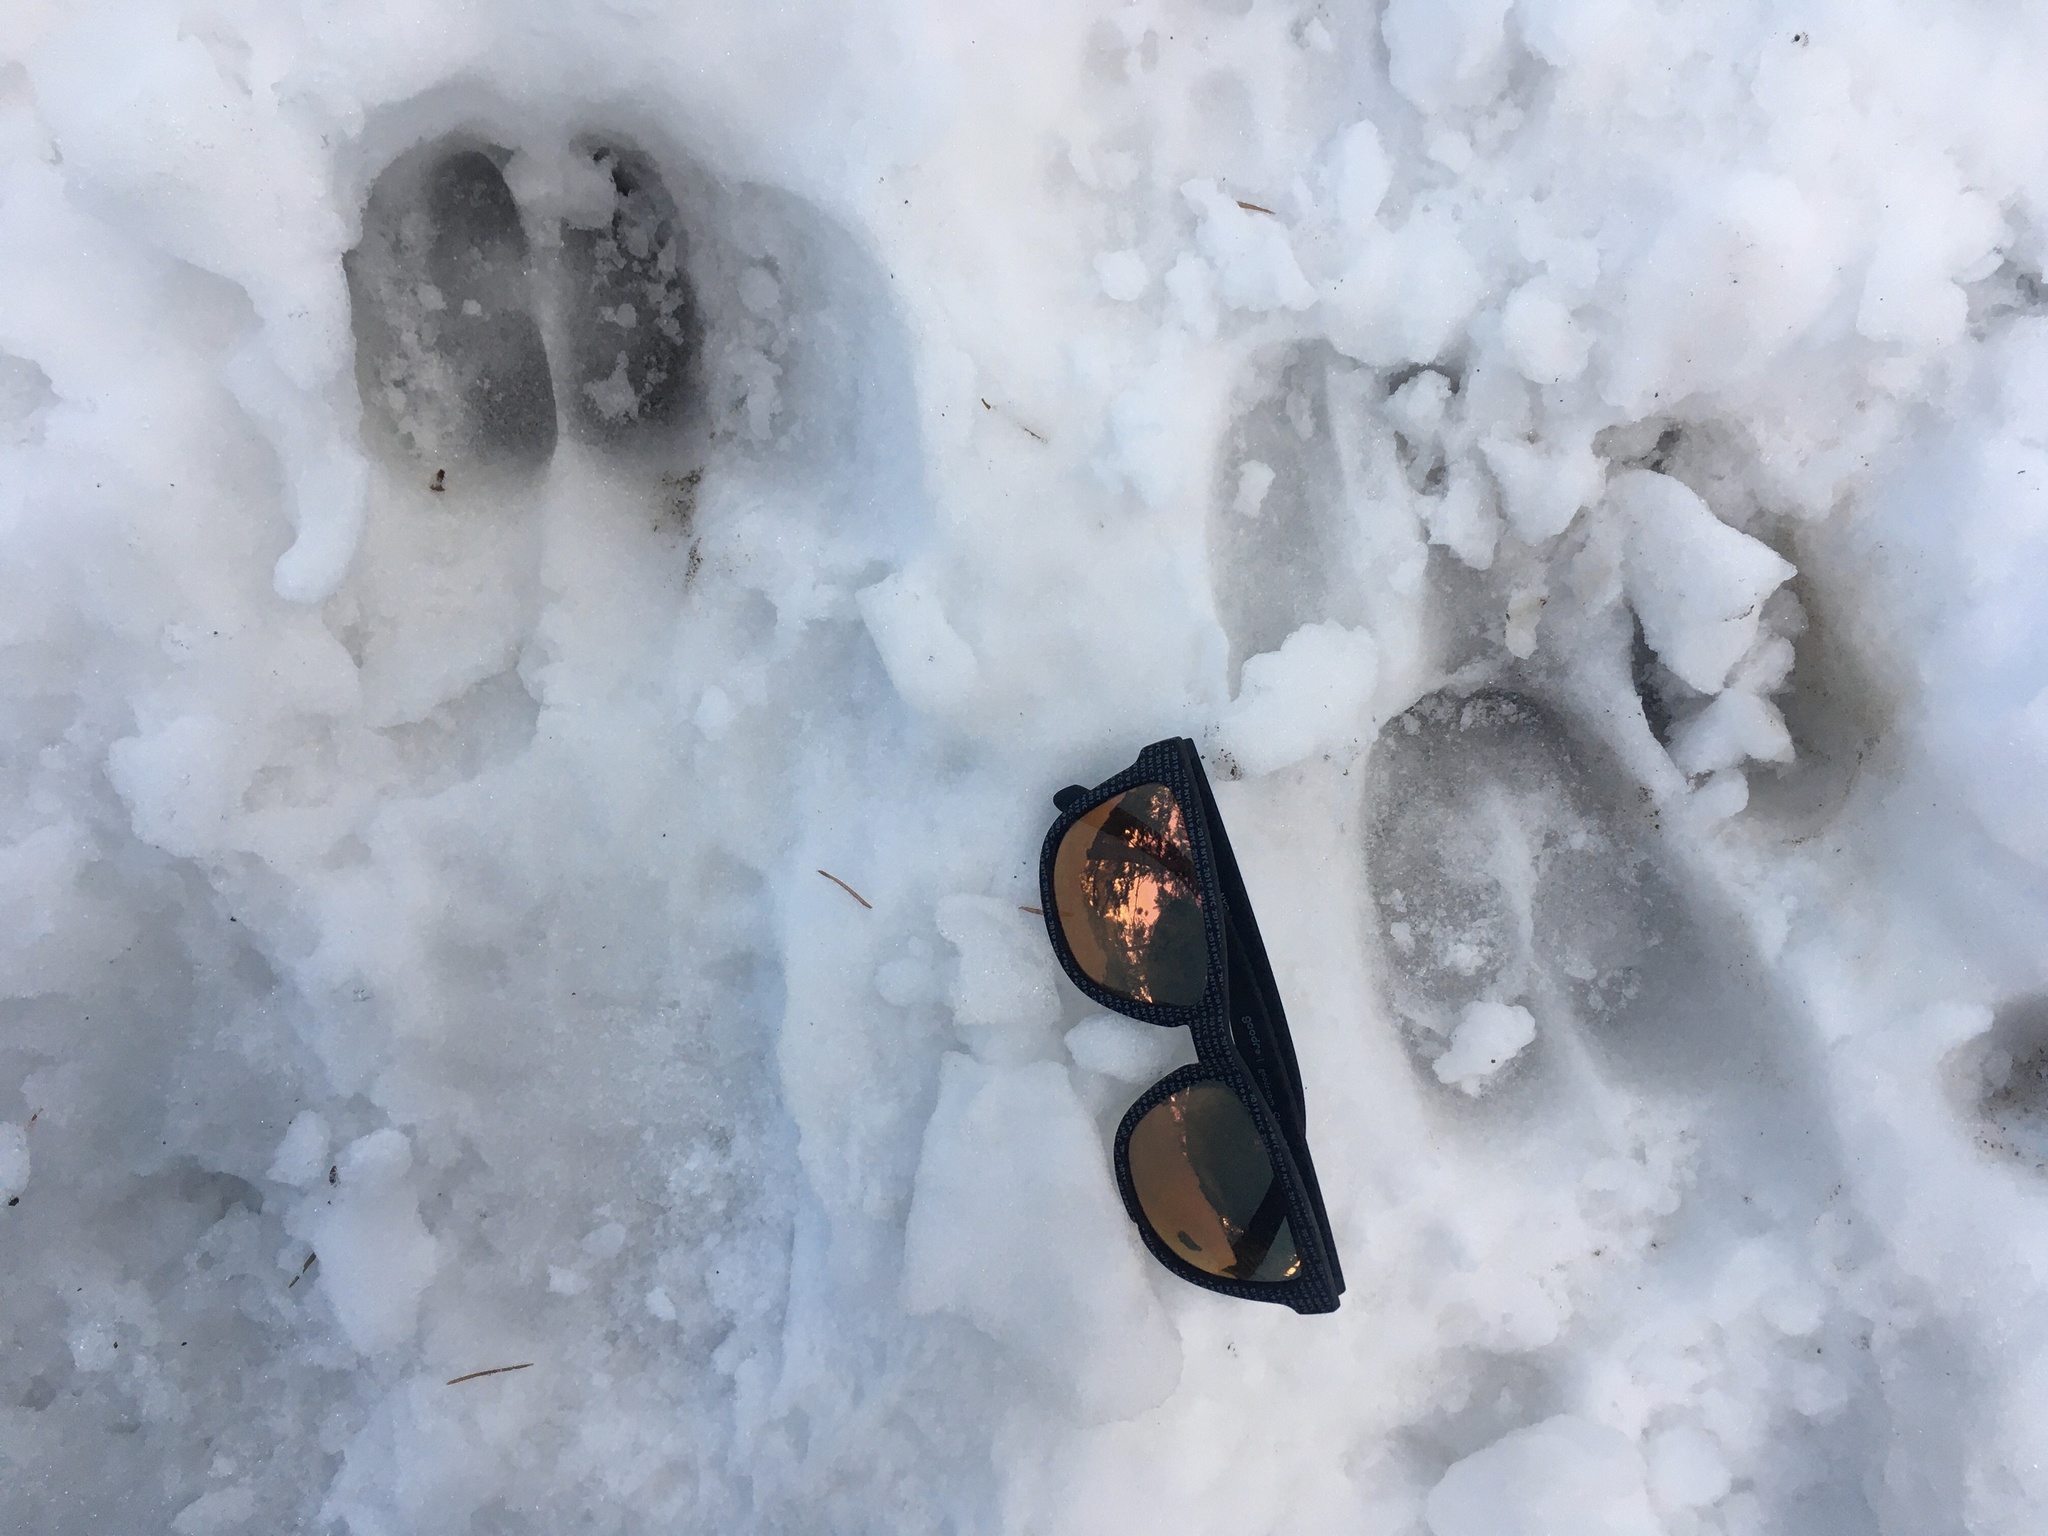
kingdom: Animalia
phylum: Chordata
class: Mammalia
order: Artiodactyla
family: Cervidae
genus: Cervus
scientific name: Cervus elaphus
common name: Red deer
